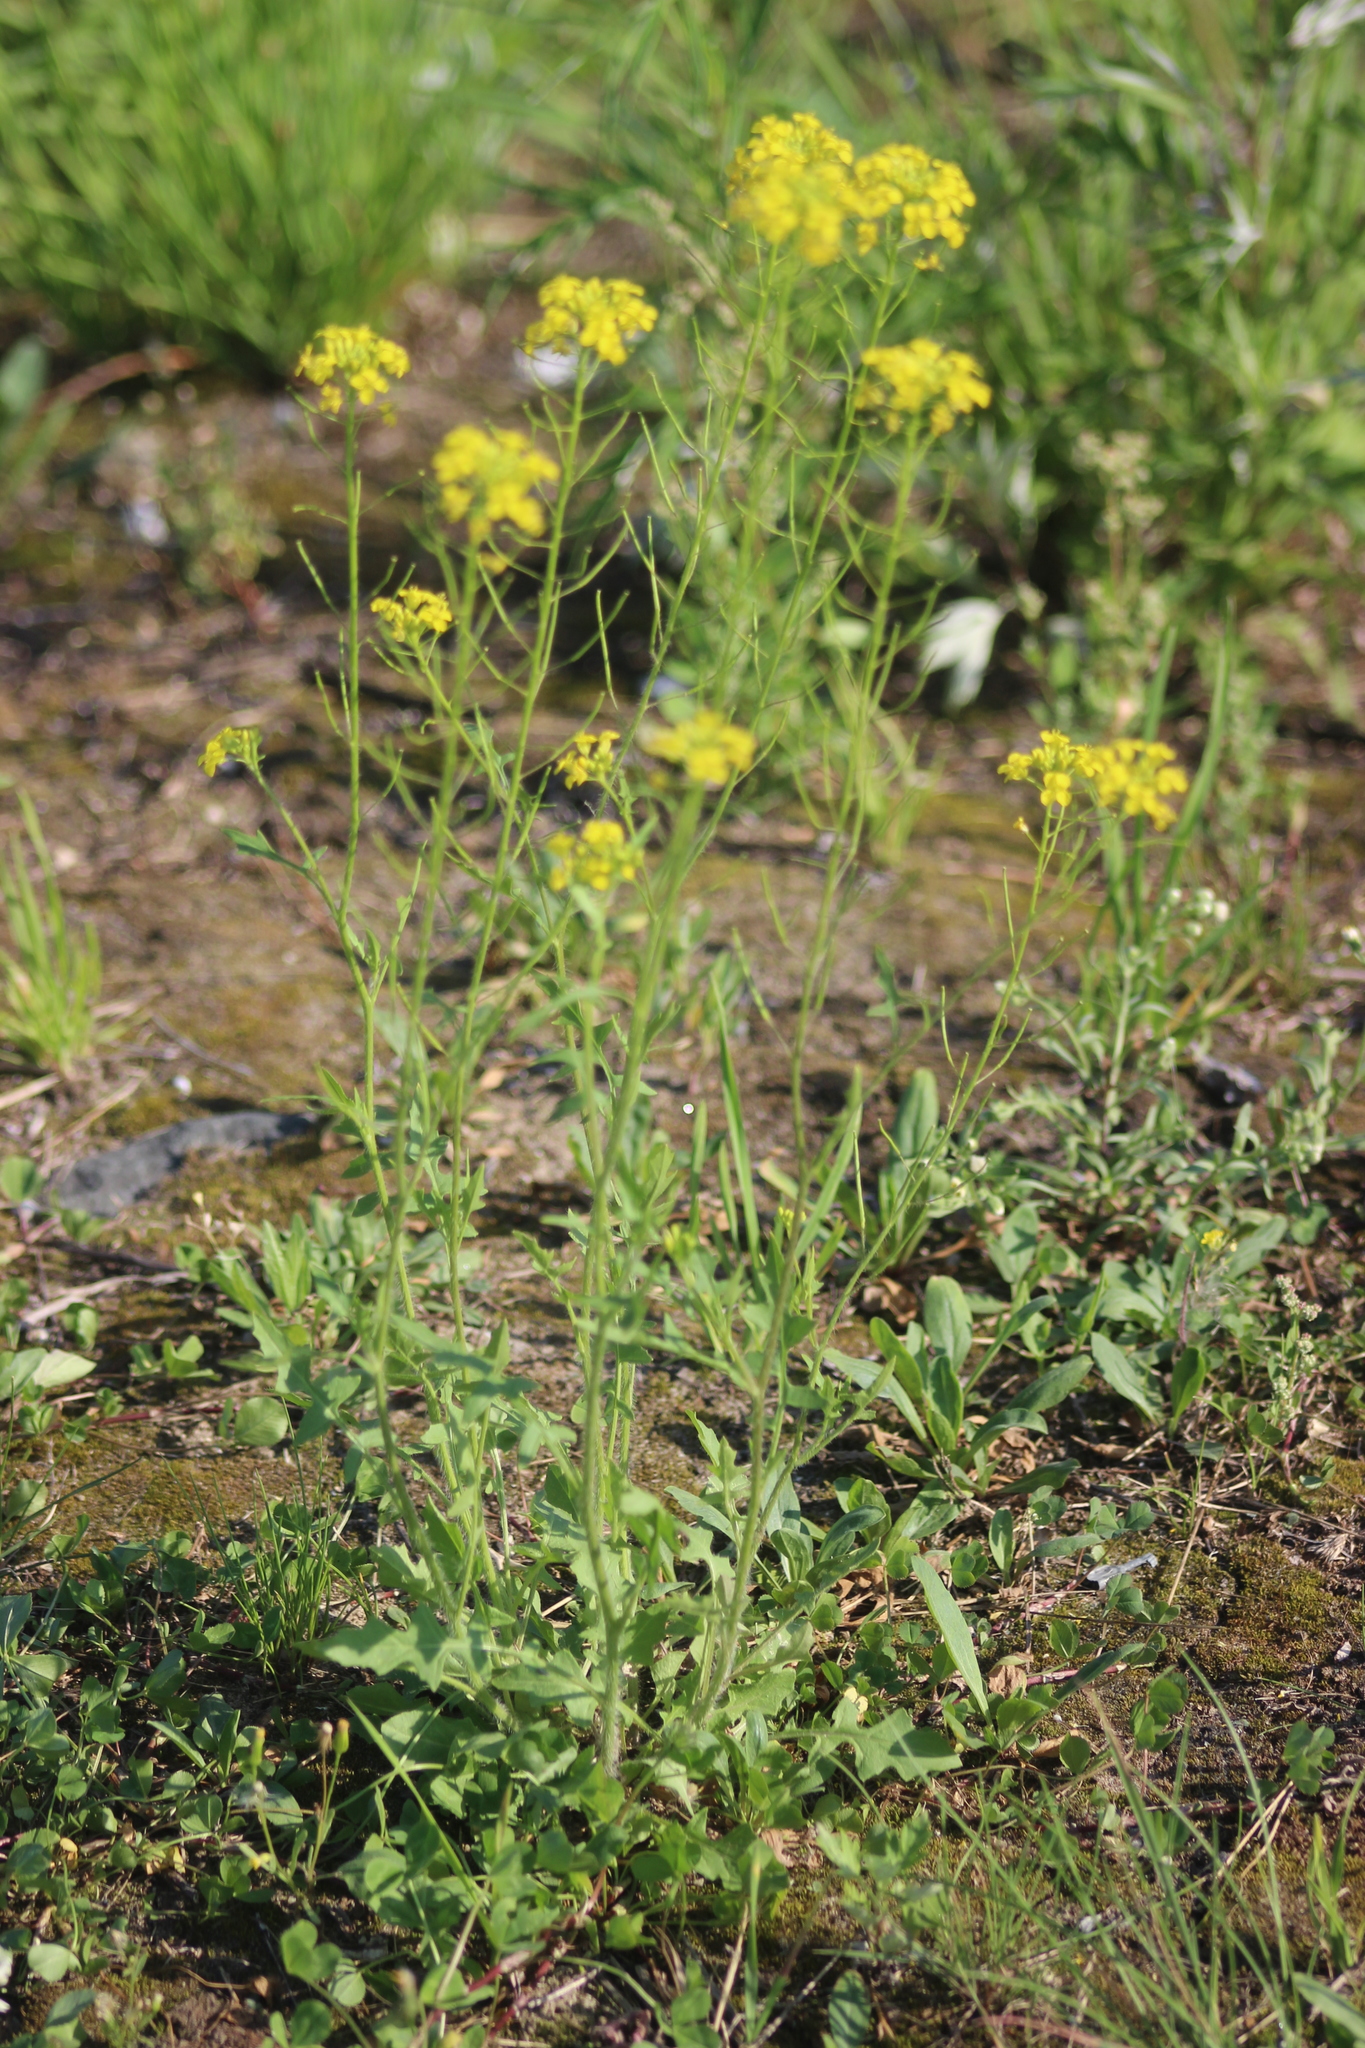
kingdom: Plantae
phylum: Tracheophyta
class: Magnoliopsida
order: Brassicales
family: Brassicaceae
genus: Sisymbrium
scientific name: Sisymbrium loeselii
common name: False london-rocket
